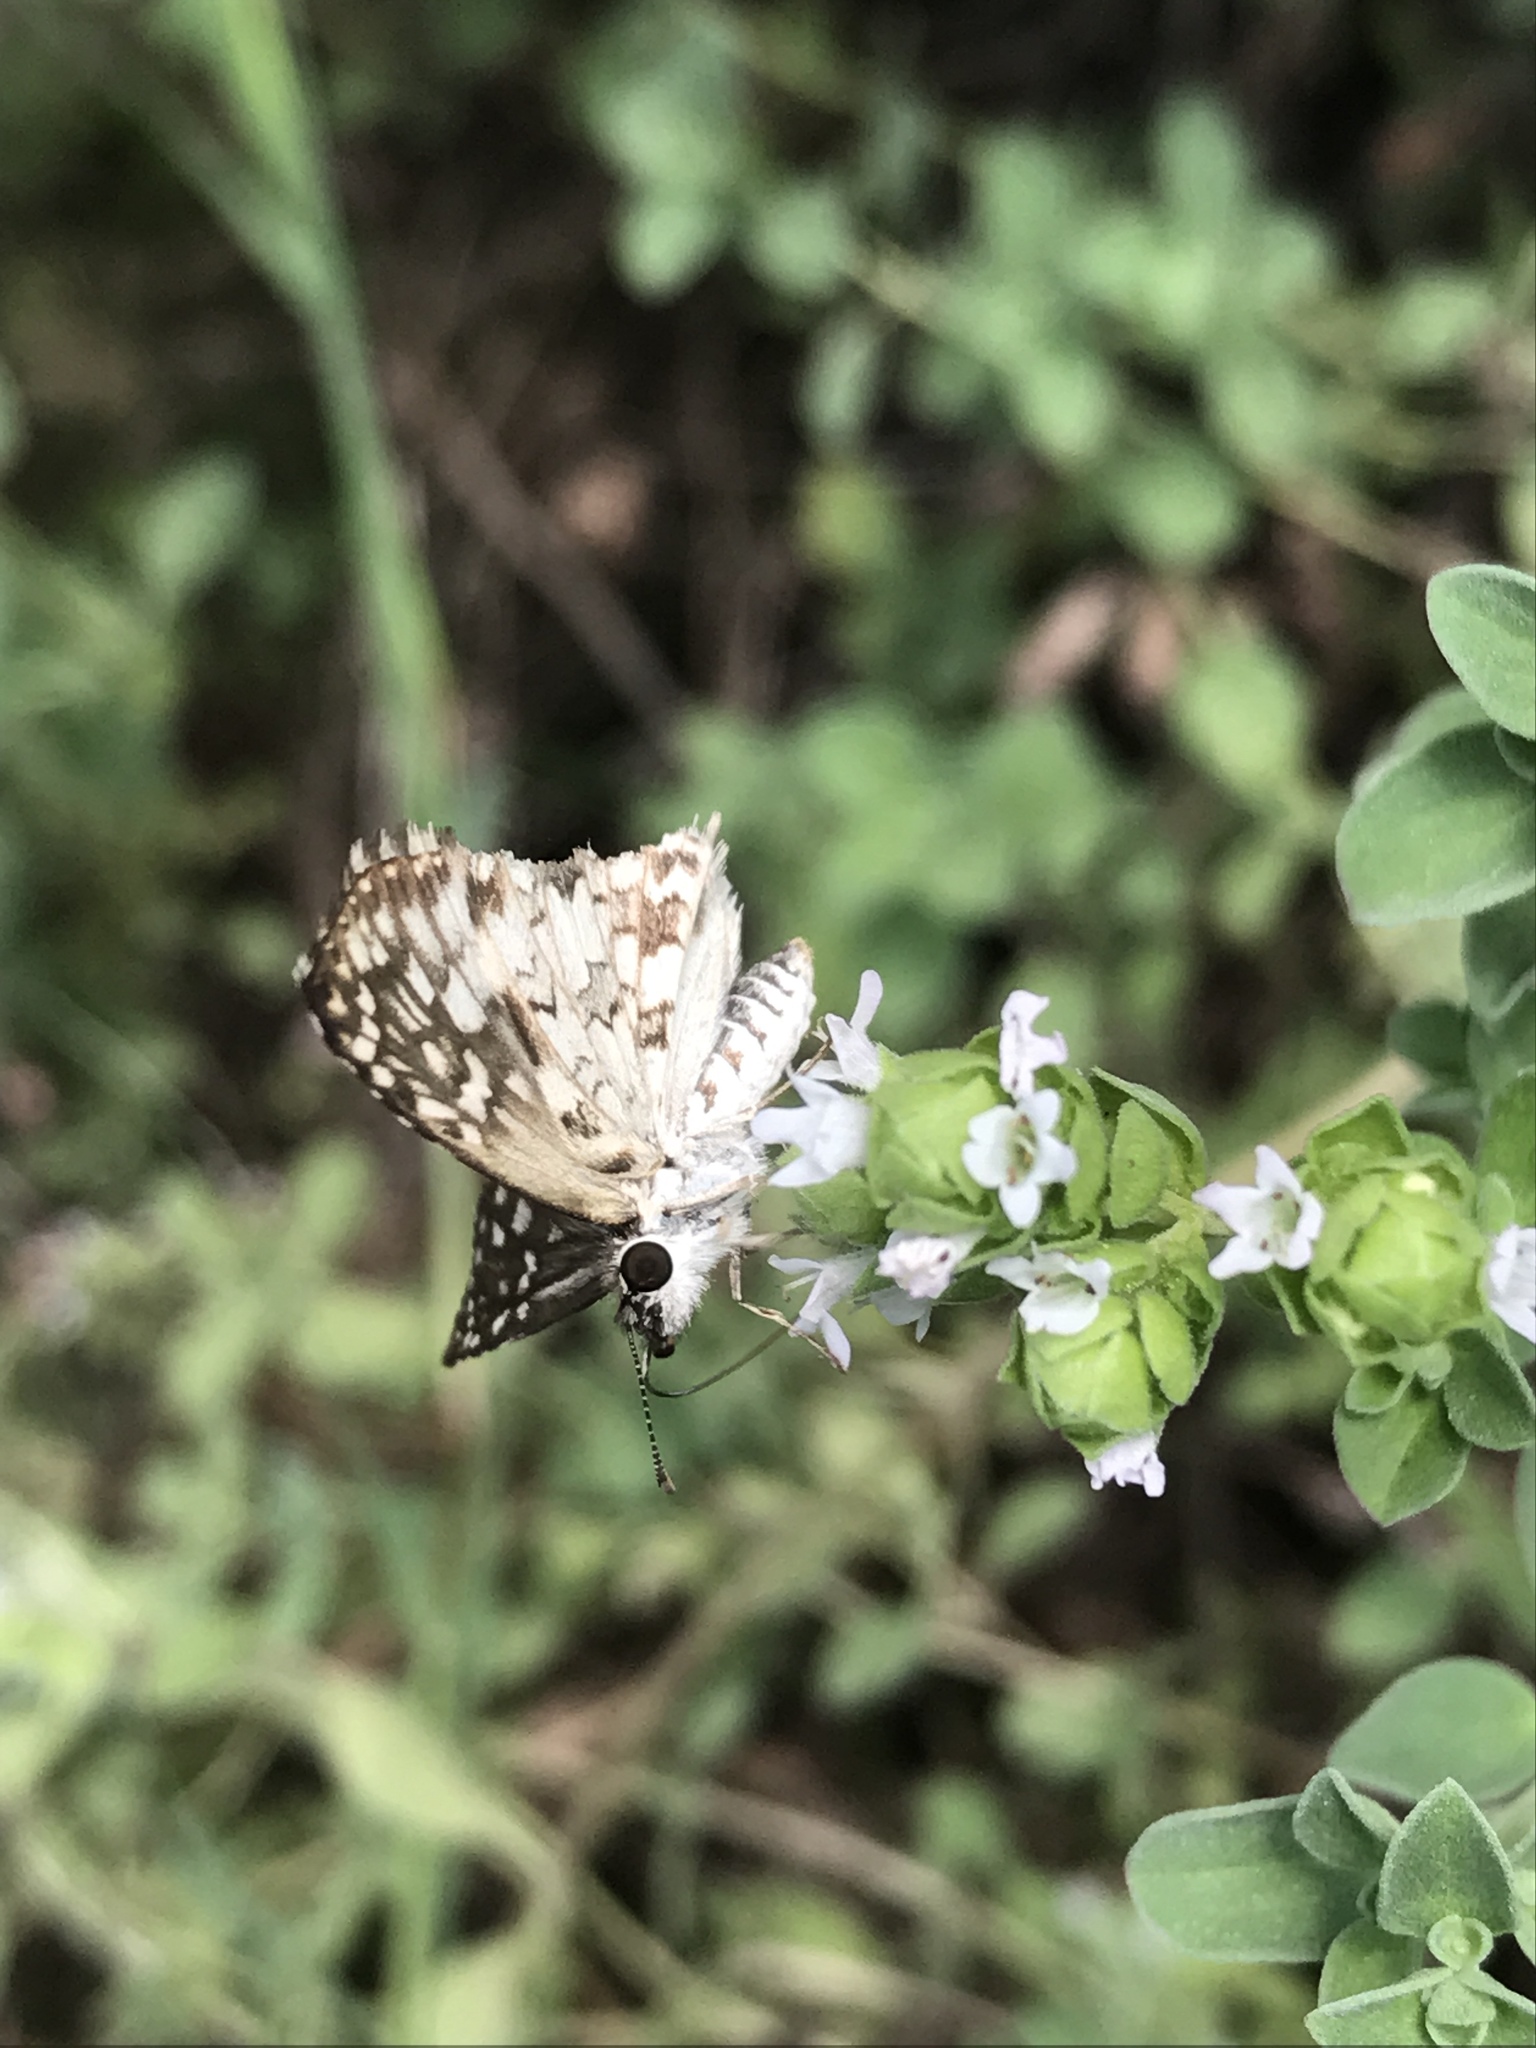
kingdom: Animalia
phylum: Arthropoda
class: Insecta
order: Lepidoptera
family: Hesperiidae
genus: Pyrgus
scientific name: Pyrgus oileus
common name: Tropical checkered-skipper
